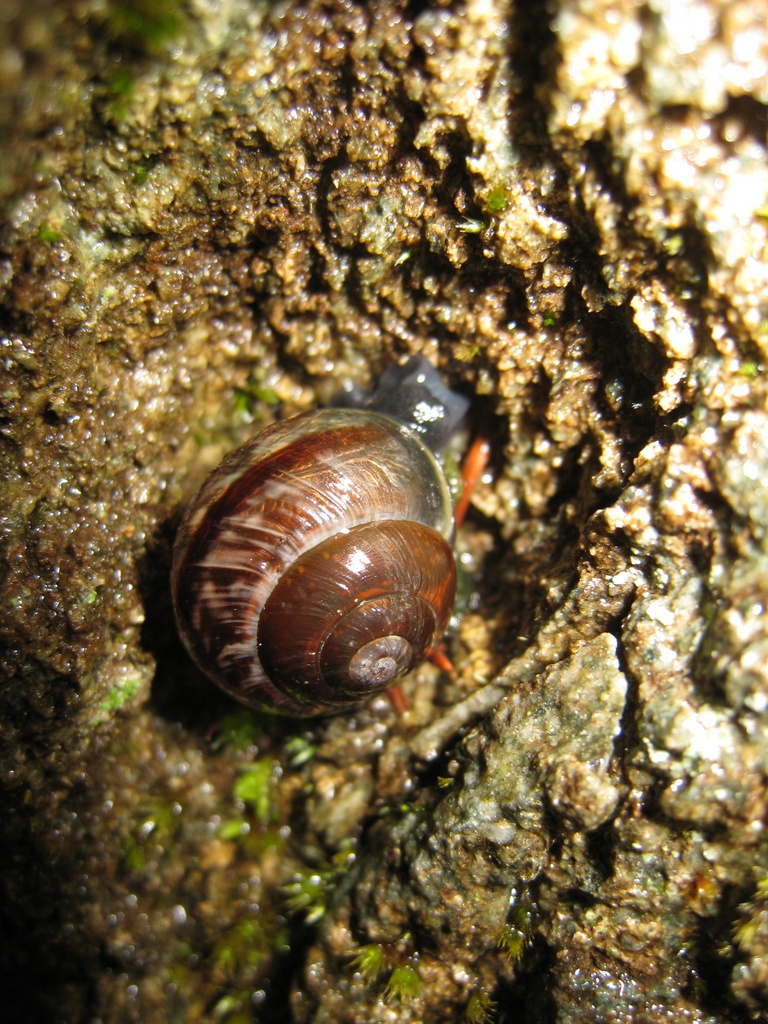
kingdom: Animalia
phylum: Mollusca
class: Gastropoda
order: Stylommatophora
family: Helicidae
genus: Arianta
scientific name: Arianta arbustorum
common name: Copse snail
